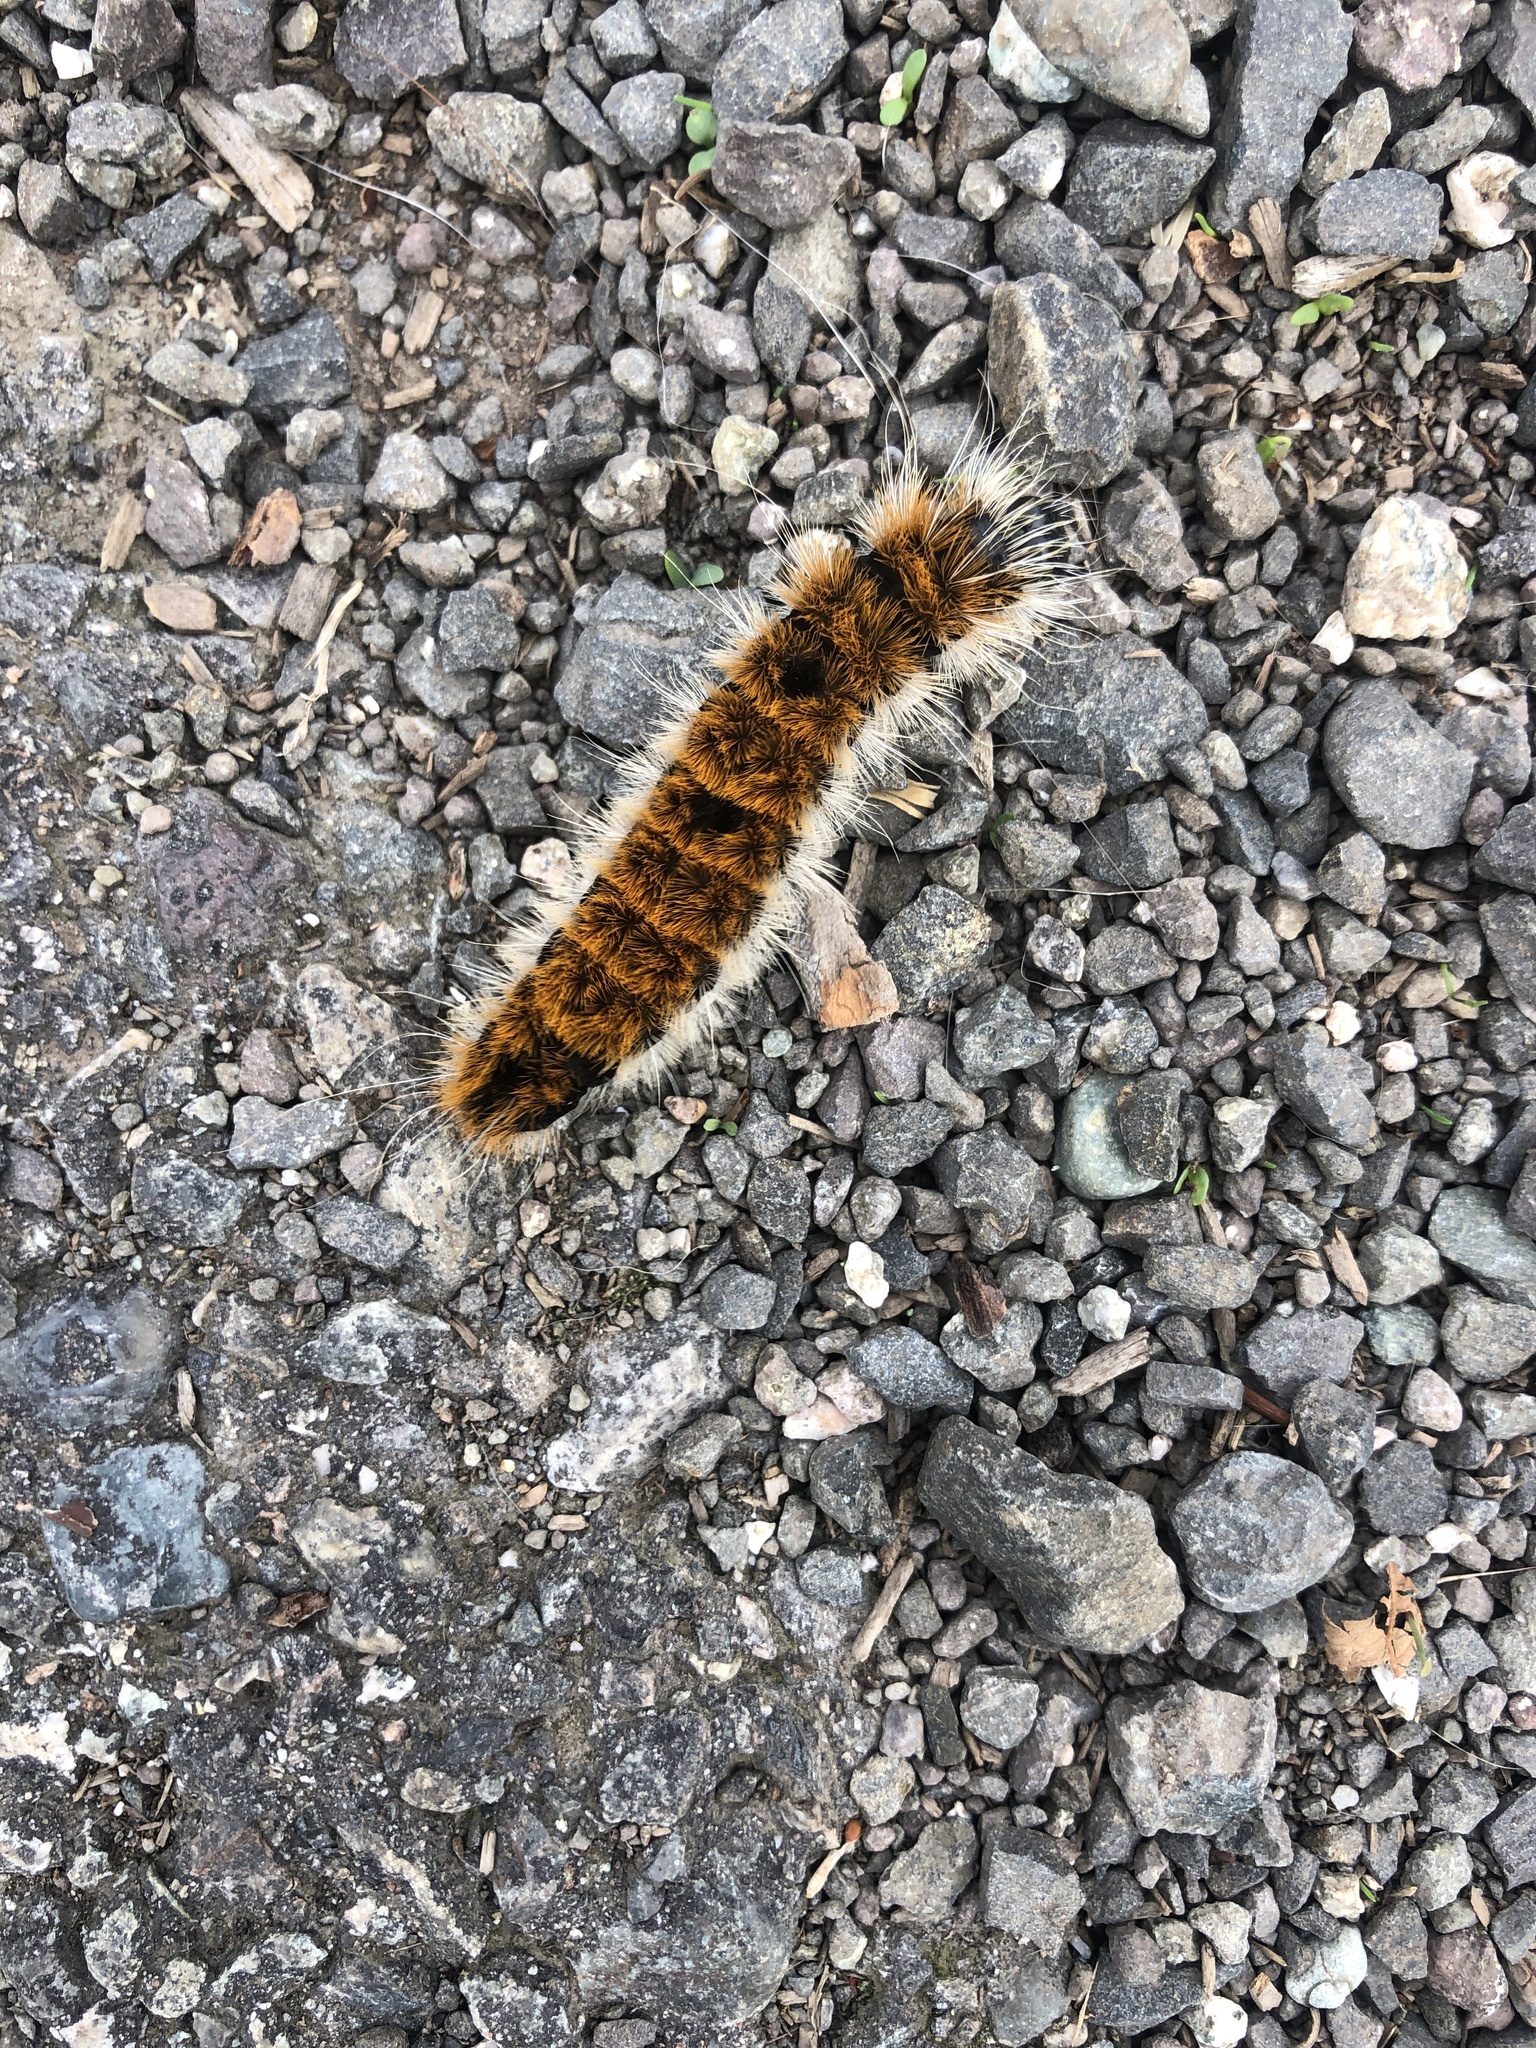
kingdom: Animalia
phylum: Arthropoda
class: Insecta
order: Lepidoptera
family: Noctuidae
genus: Acronicta
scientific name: Acronicta insita
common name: Large gray dagger
